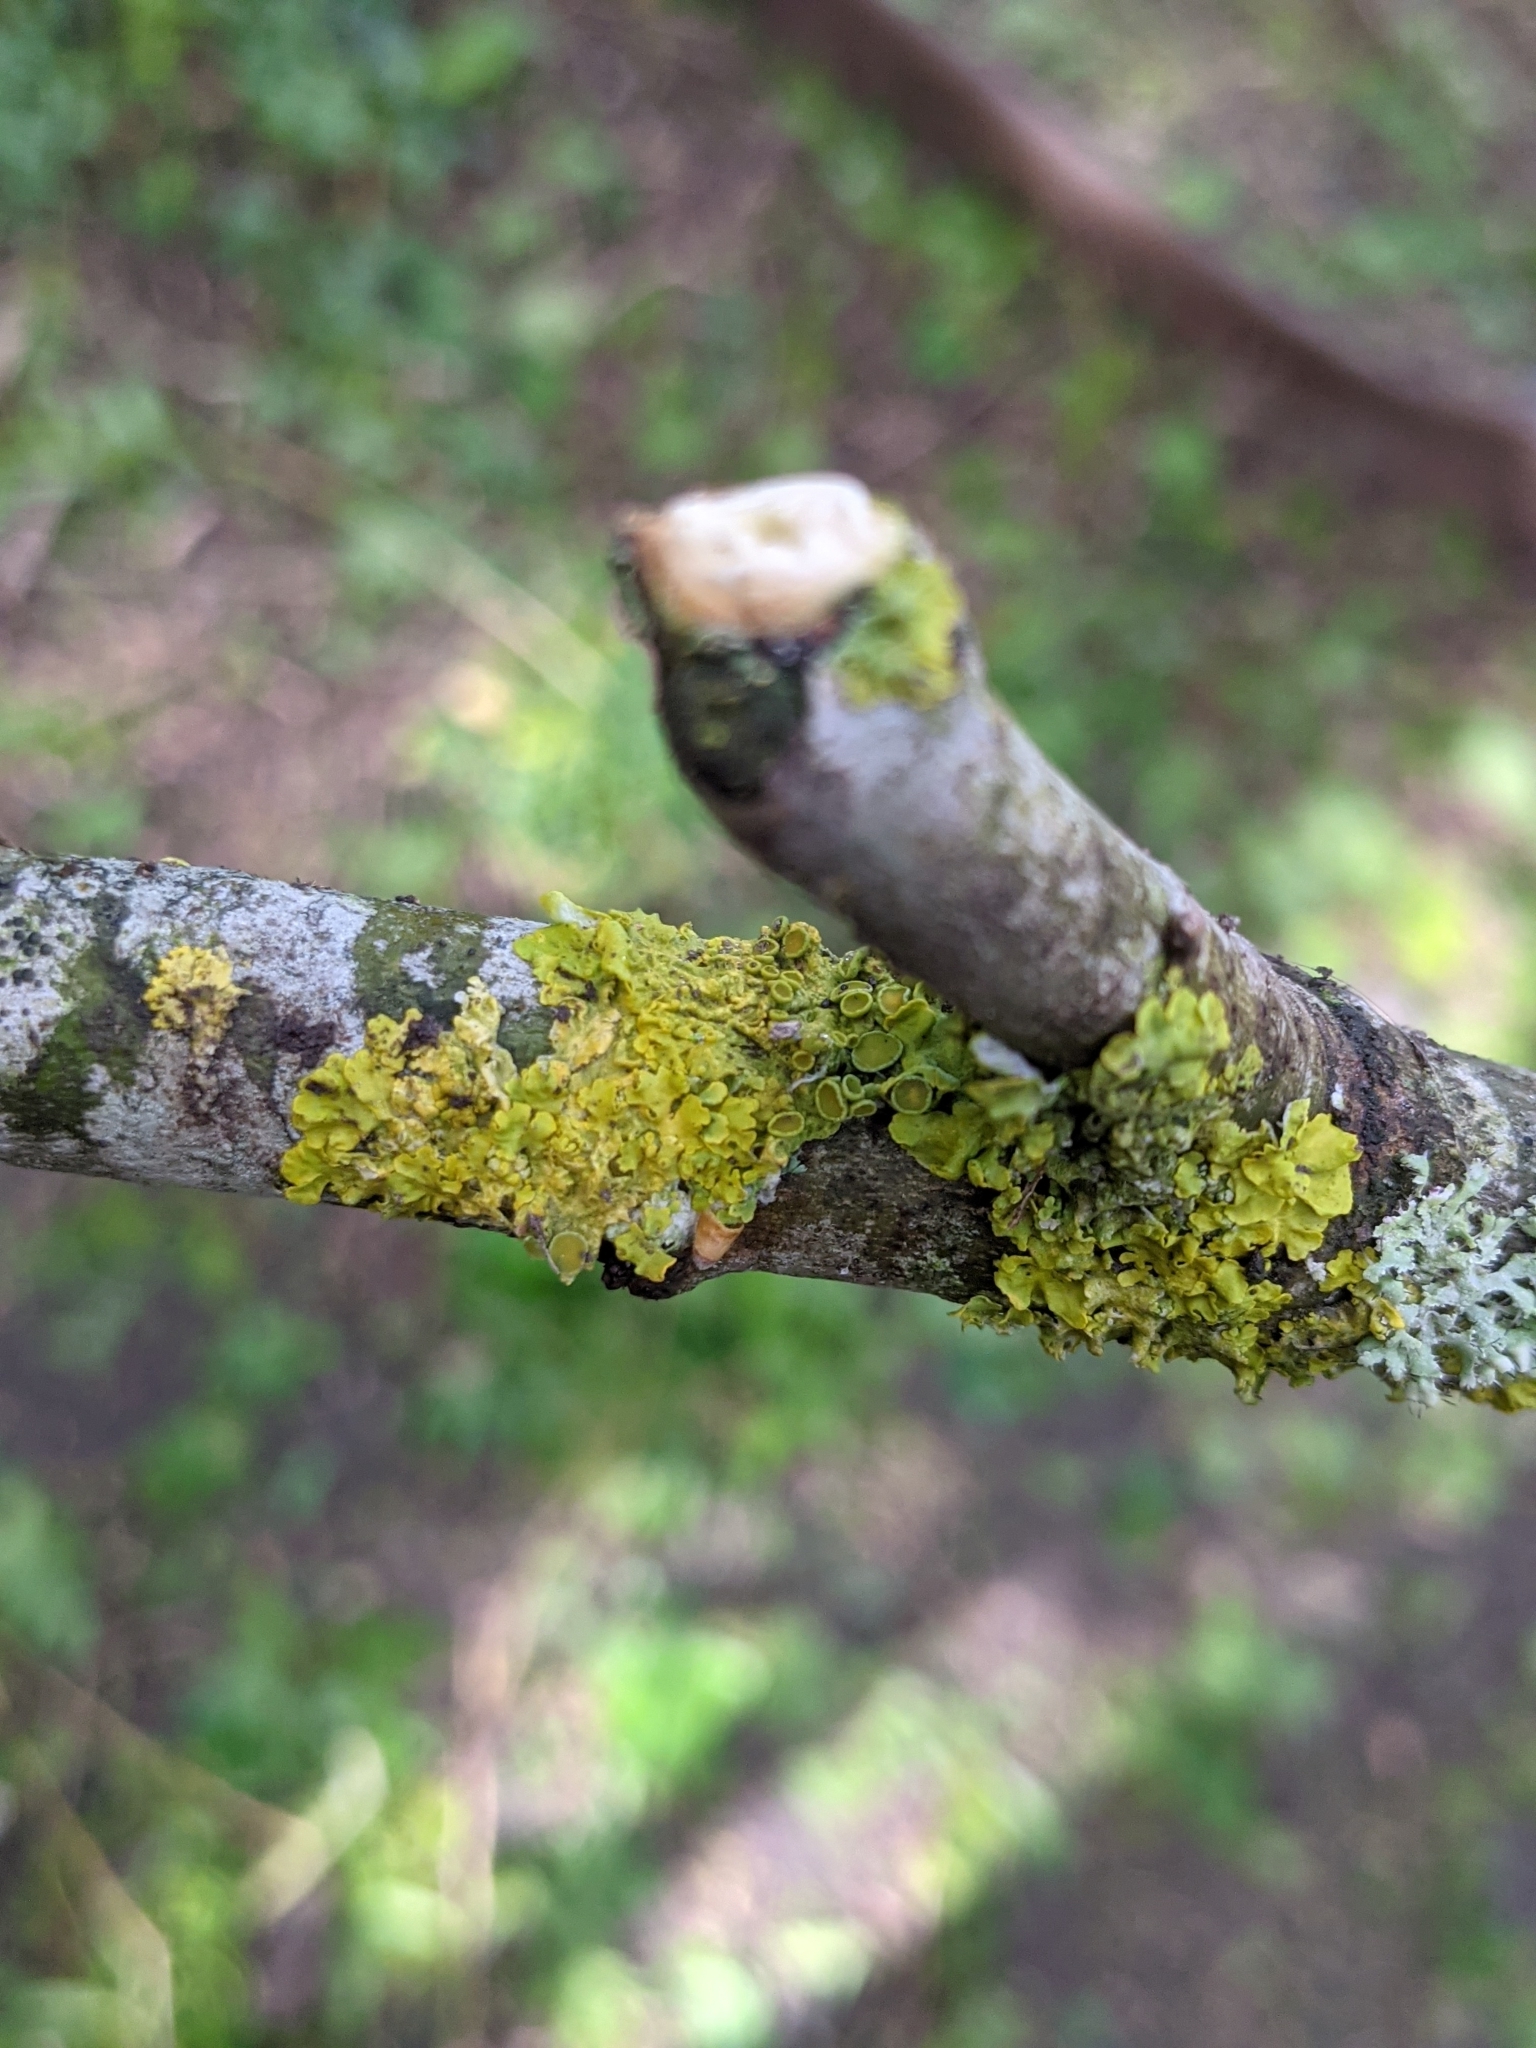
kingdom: Fungi
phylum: Ascomycota
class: Lecanoromycetes
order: Teloschistales
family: Teloschistaceae
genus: Xanthoria
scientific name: Xanthoria parietina
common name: Common orange lichen
